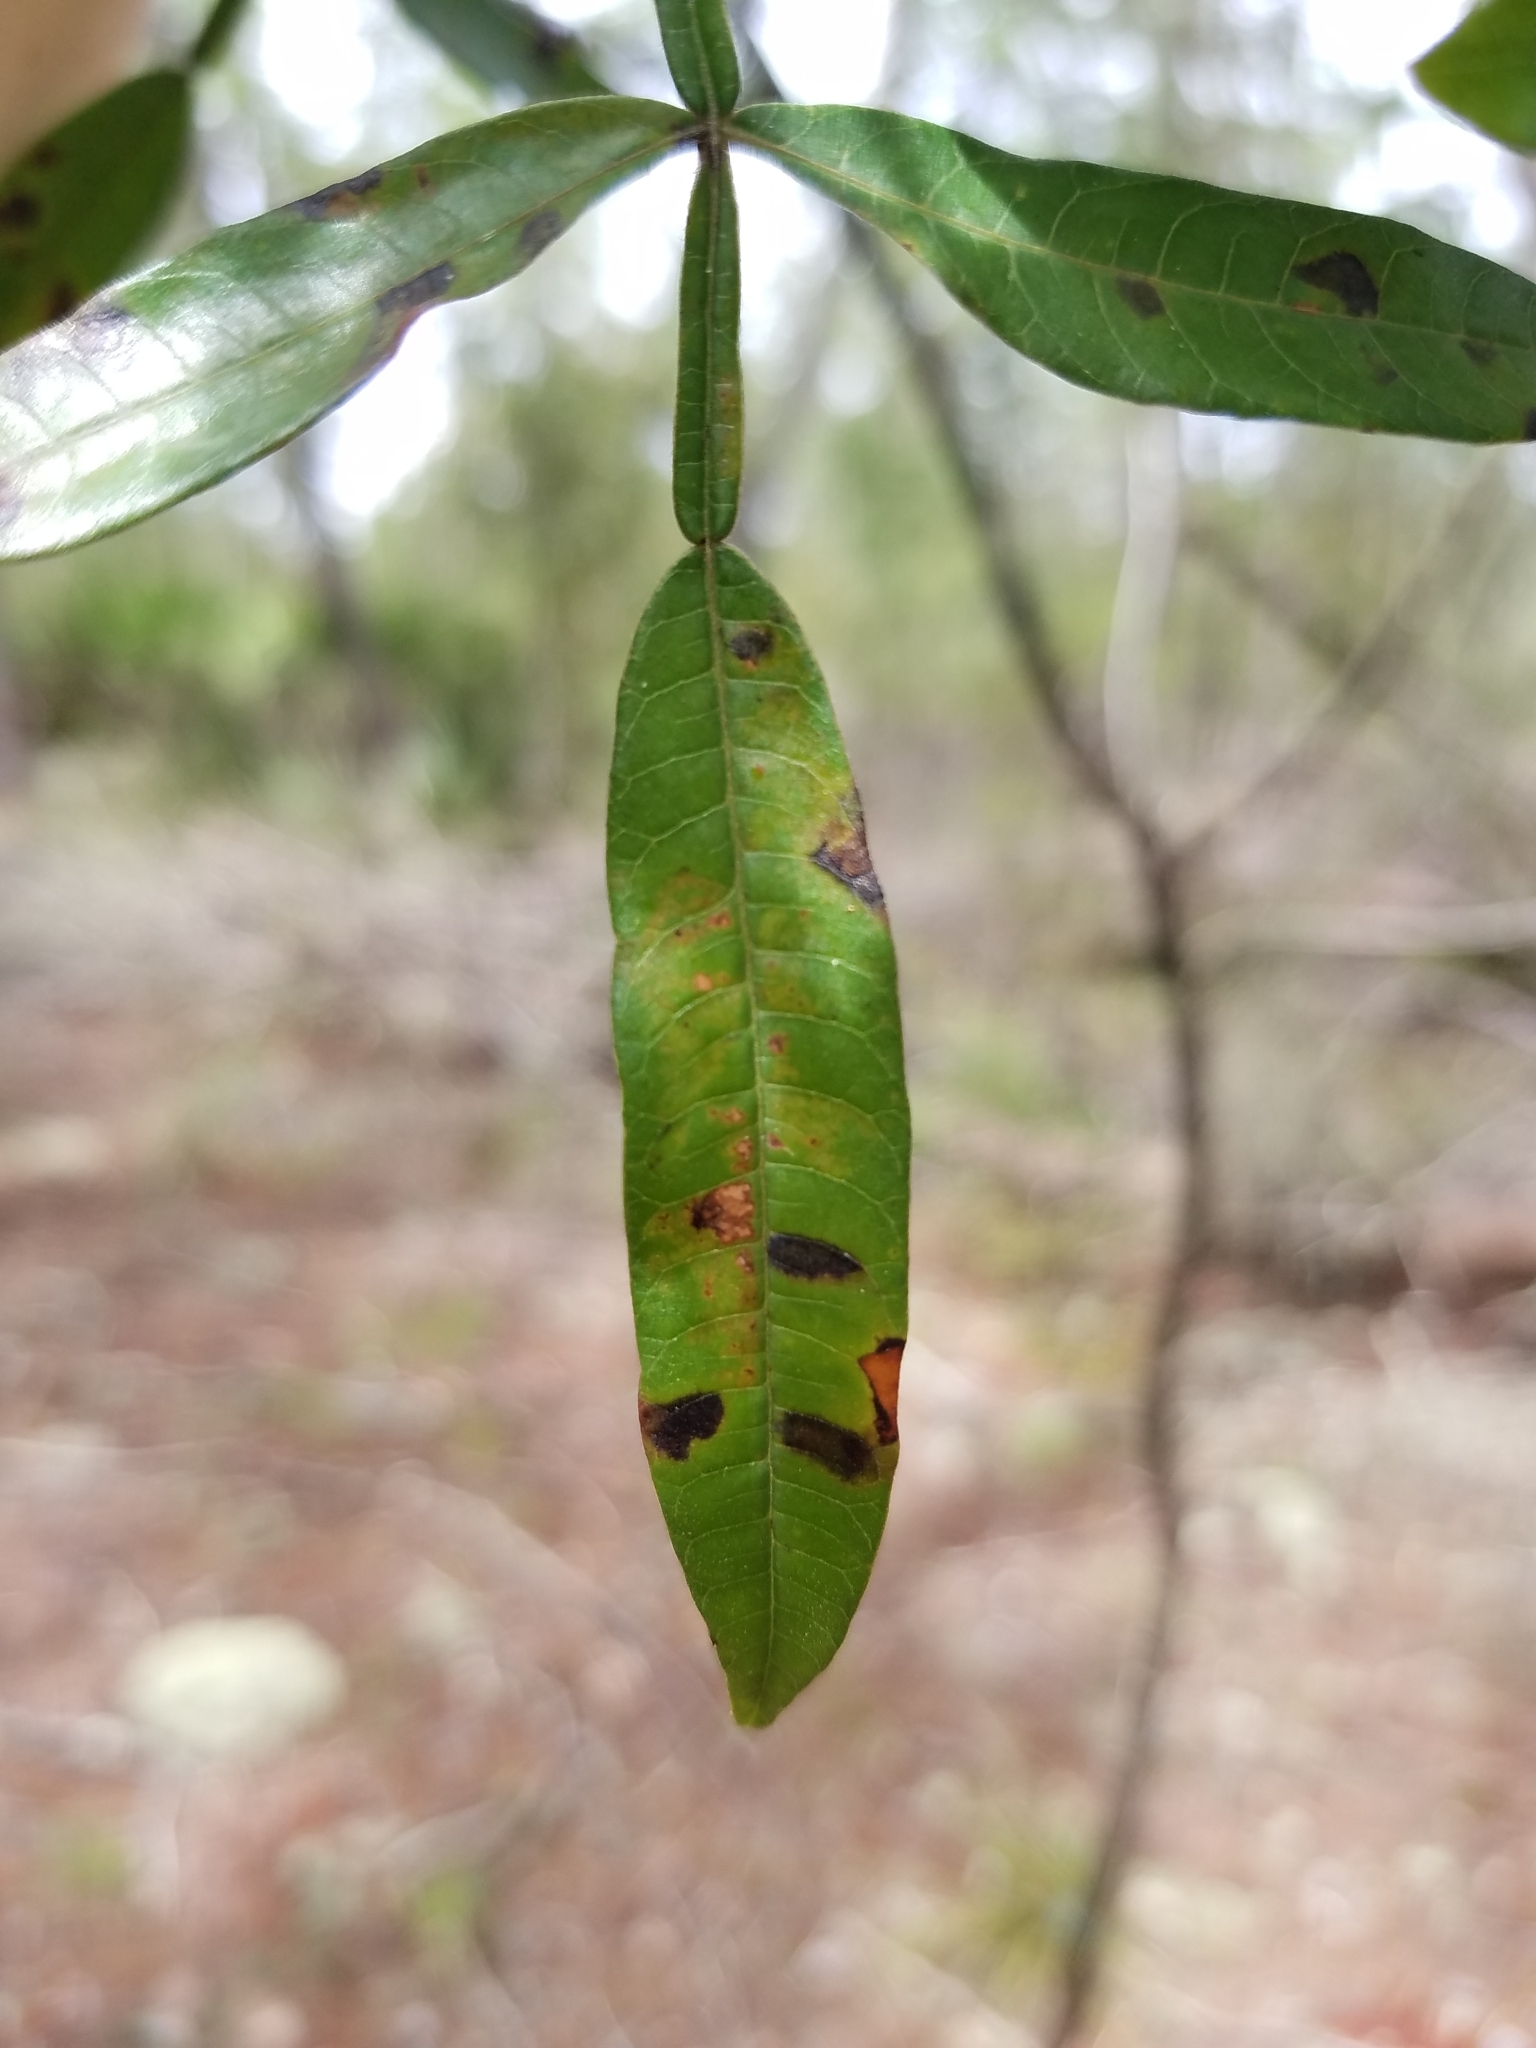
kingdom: Plantae
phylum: Tracheophyta
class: Magnoliopsida
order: Sapindales
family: Anacardiaceae
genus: Rhus
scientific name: Rhus copallina
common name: Shining sumac
